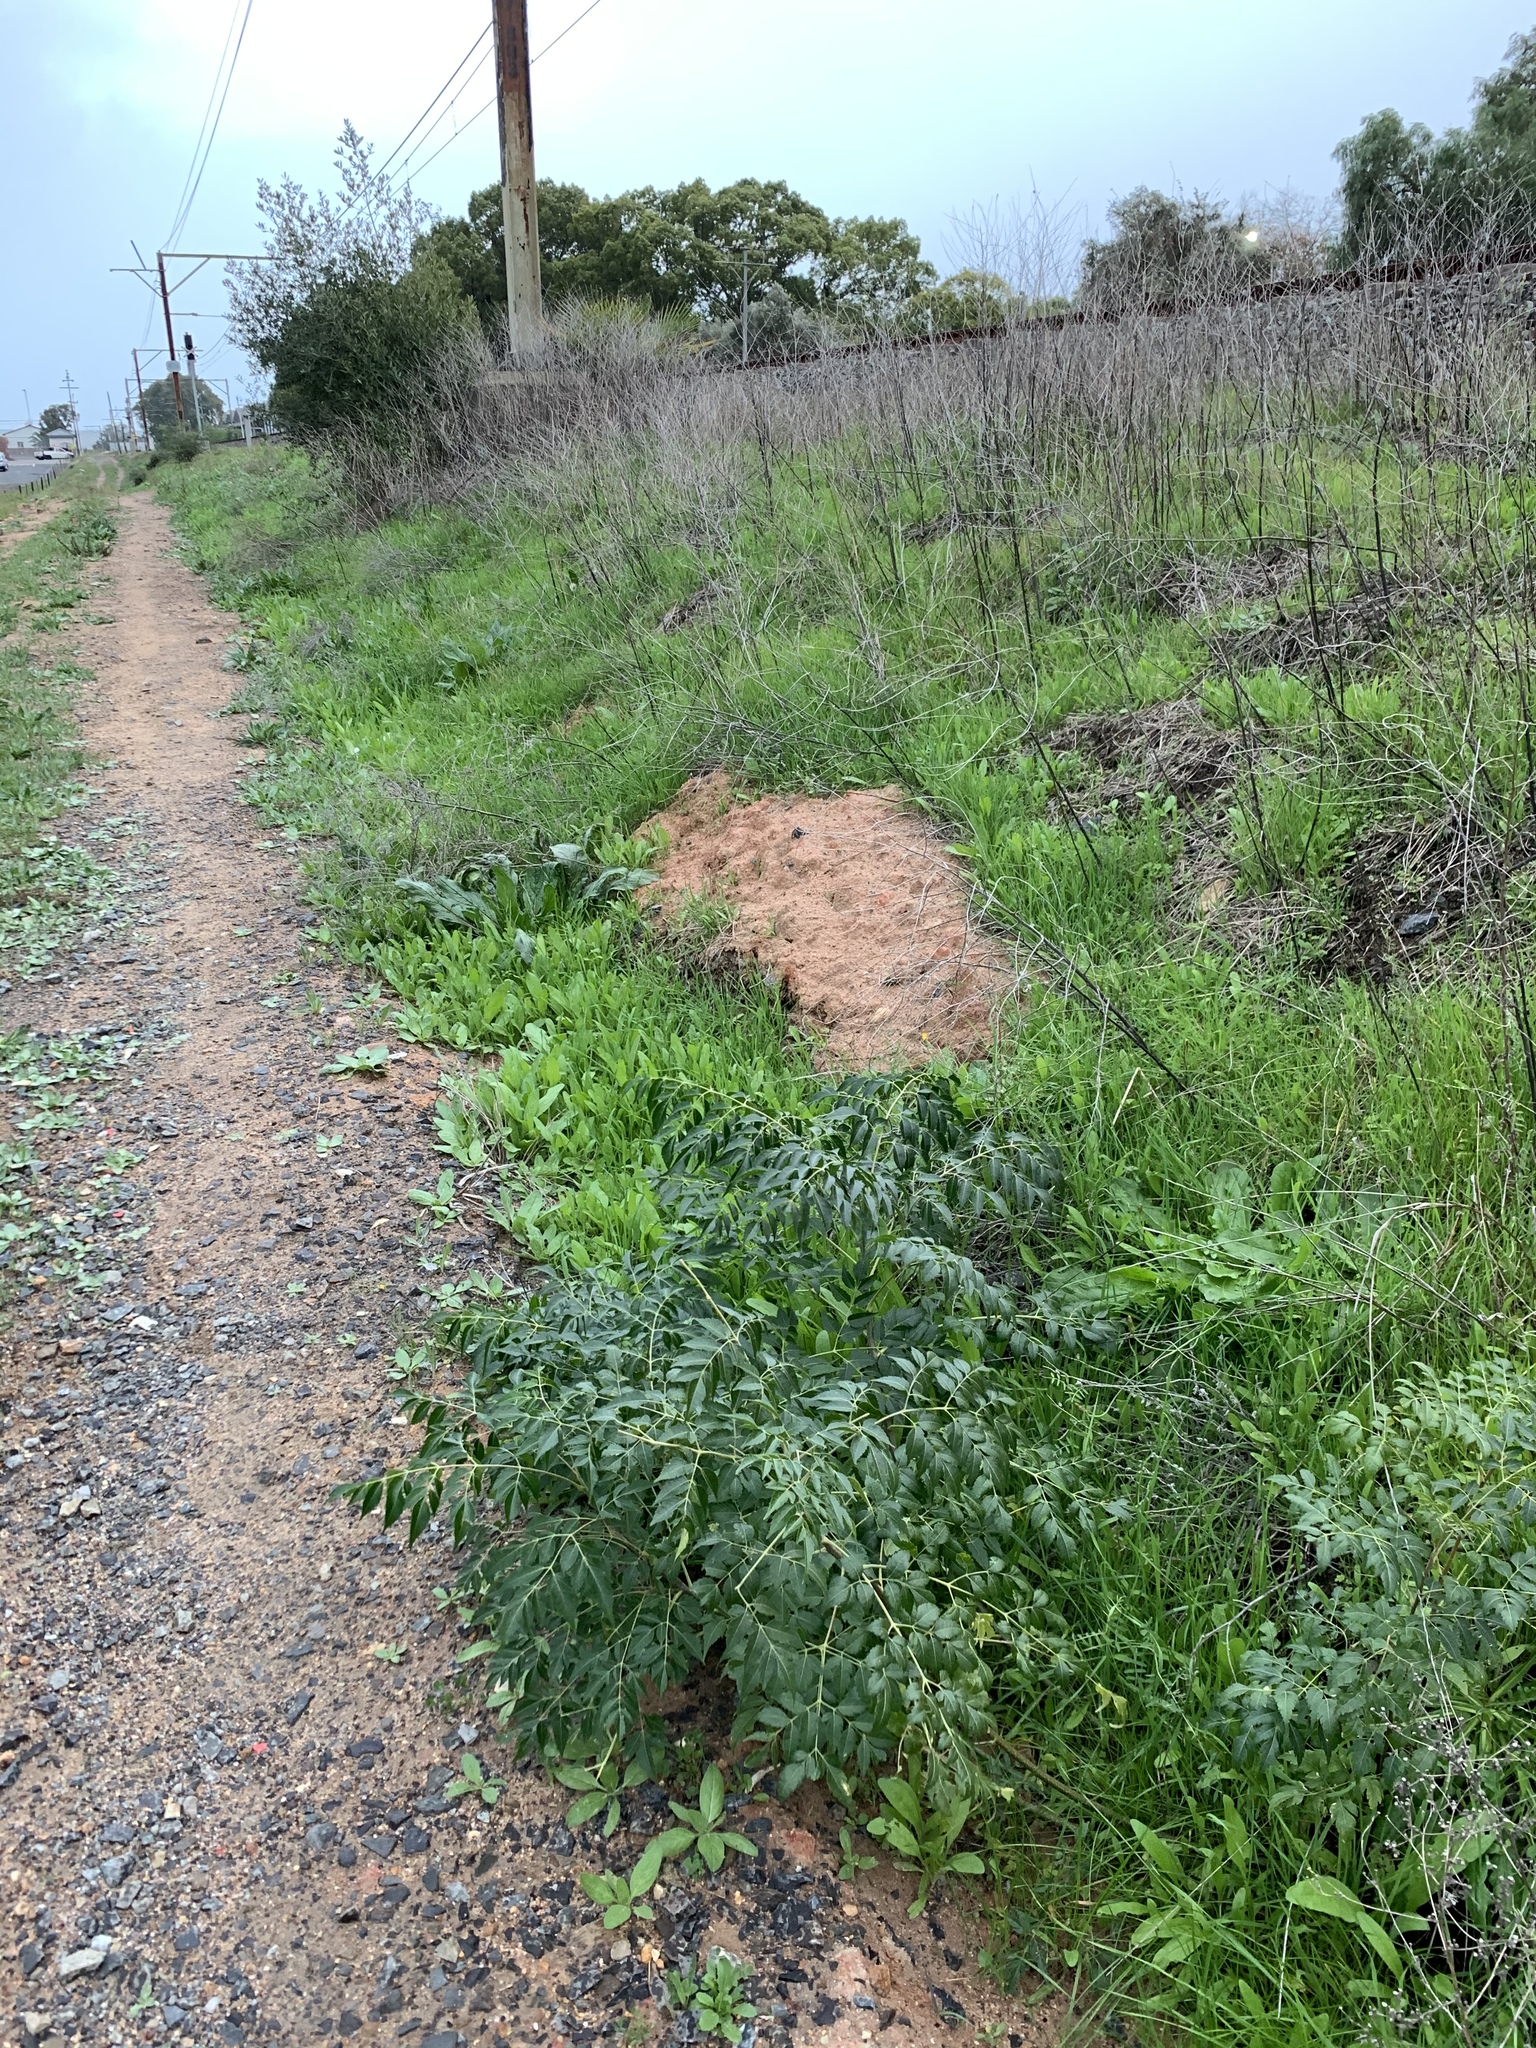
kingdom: Plantae
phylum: Tracheophyta
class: Magnoliopsida
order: Sapindales
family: Meliaceae
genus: Melia
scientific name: Melia azedarach
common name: Chinaberrytree
